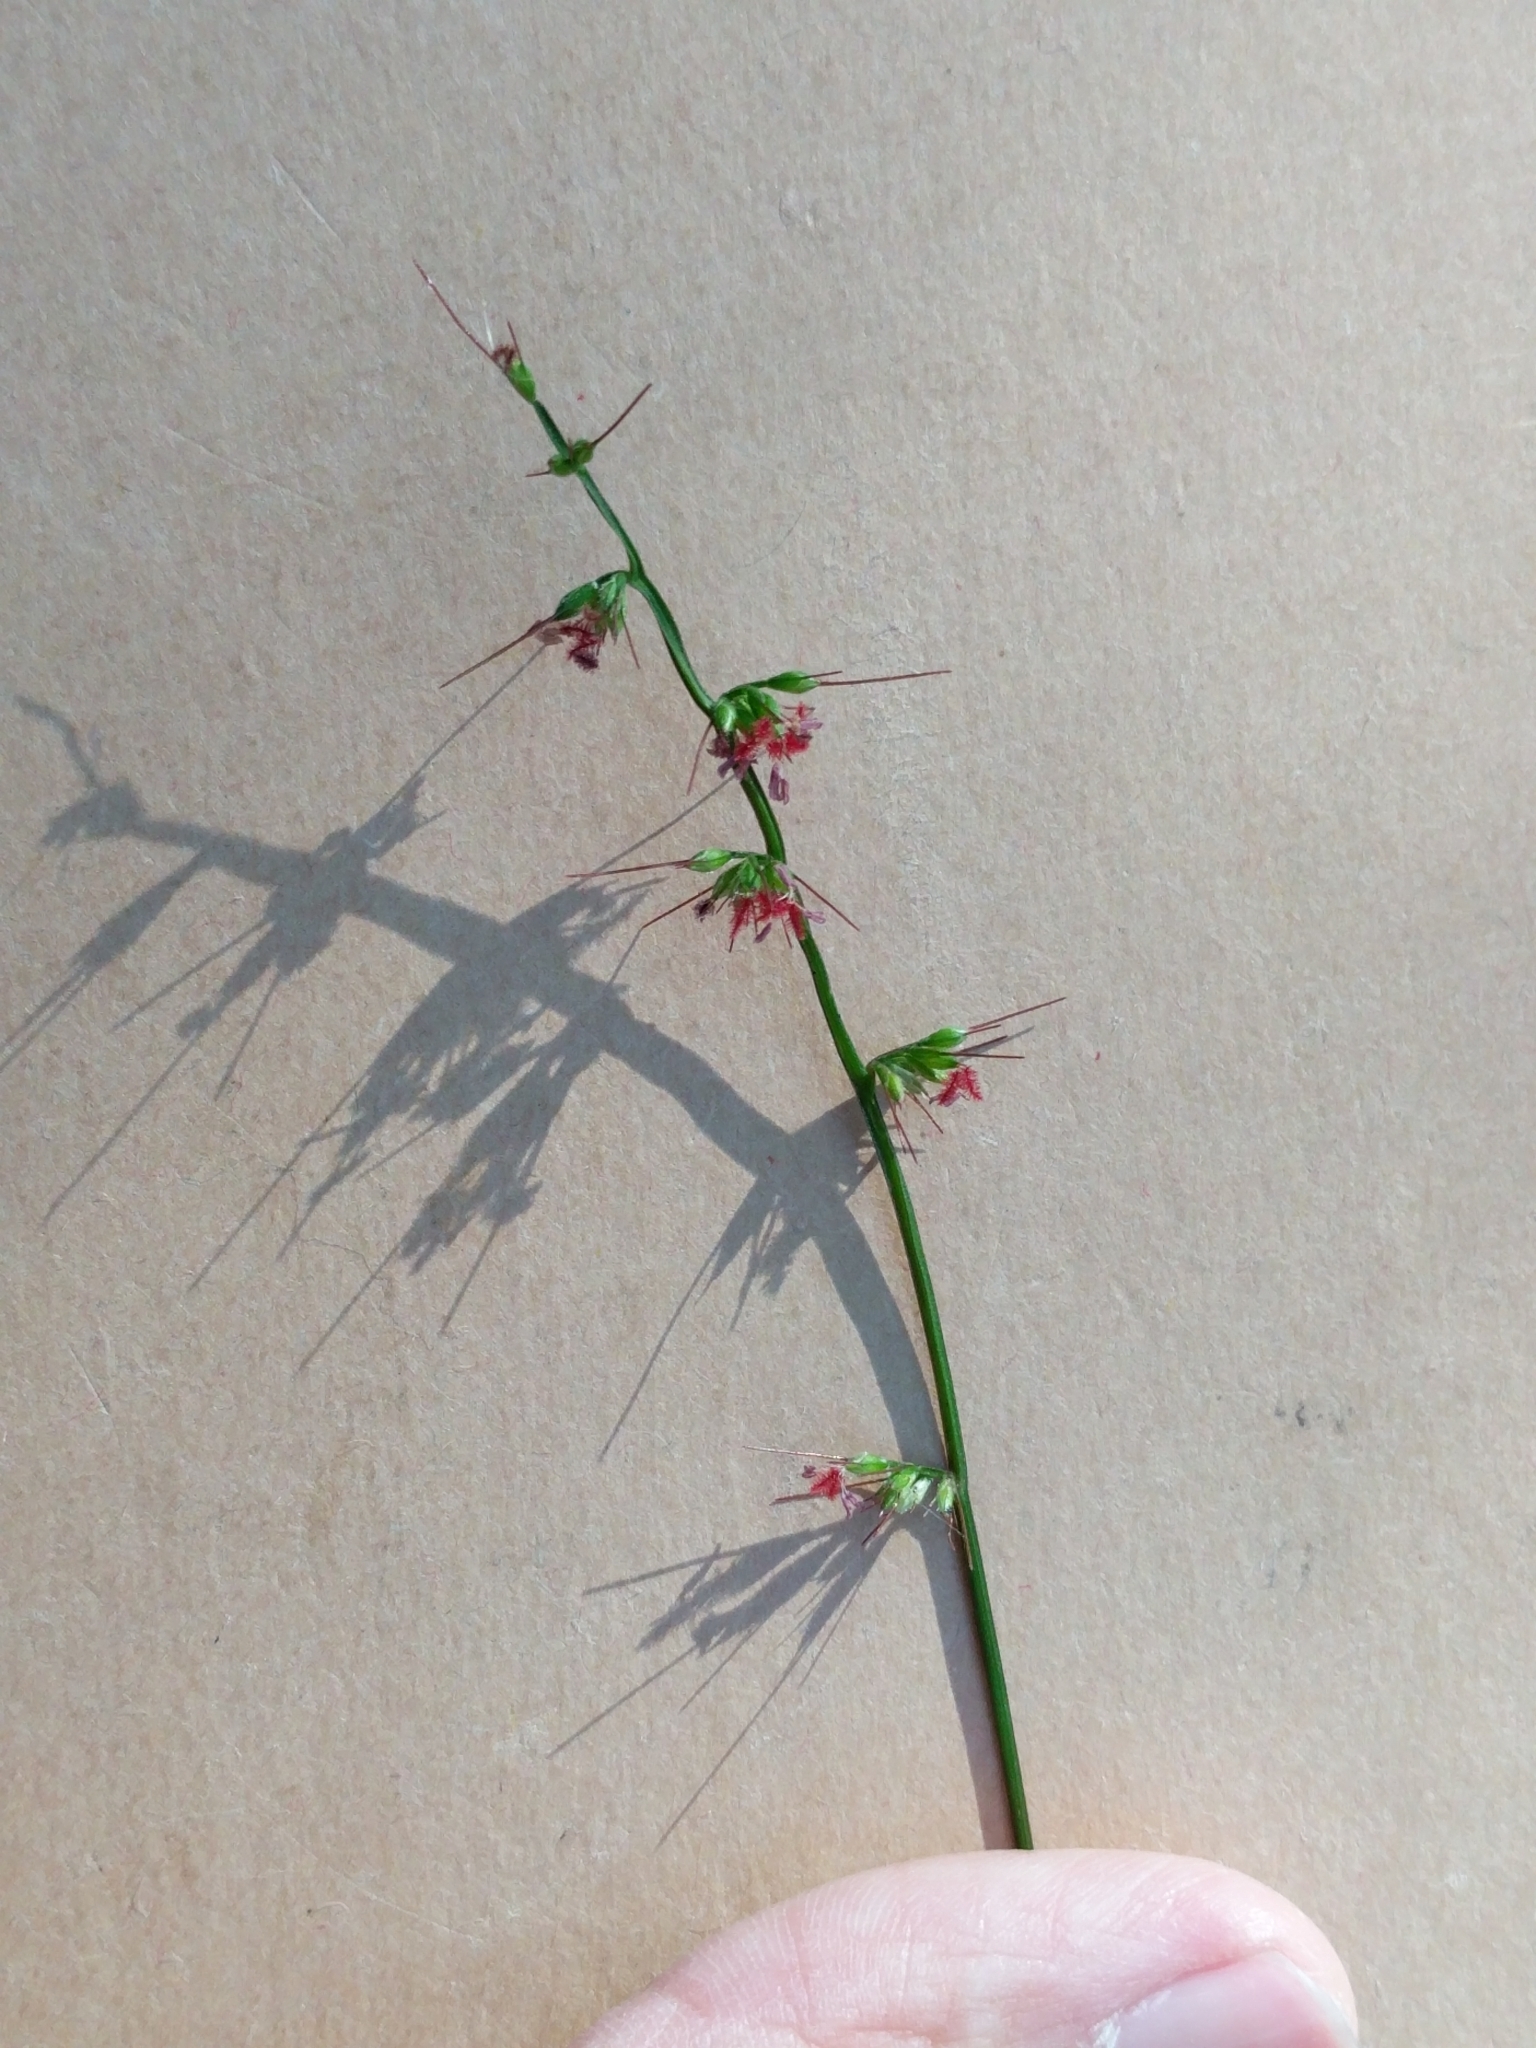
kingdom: Plantae
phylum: Tracheophyta
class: Liliopsida
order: Poales
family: Poaceae
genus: Oplismenus
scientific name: Oplismenus hirtellus
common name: Basketgrass
